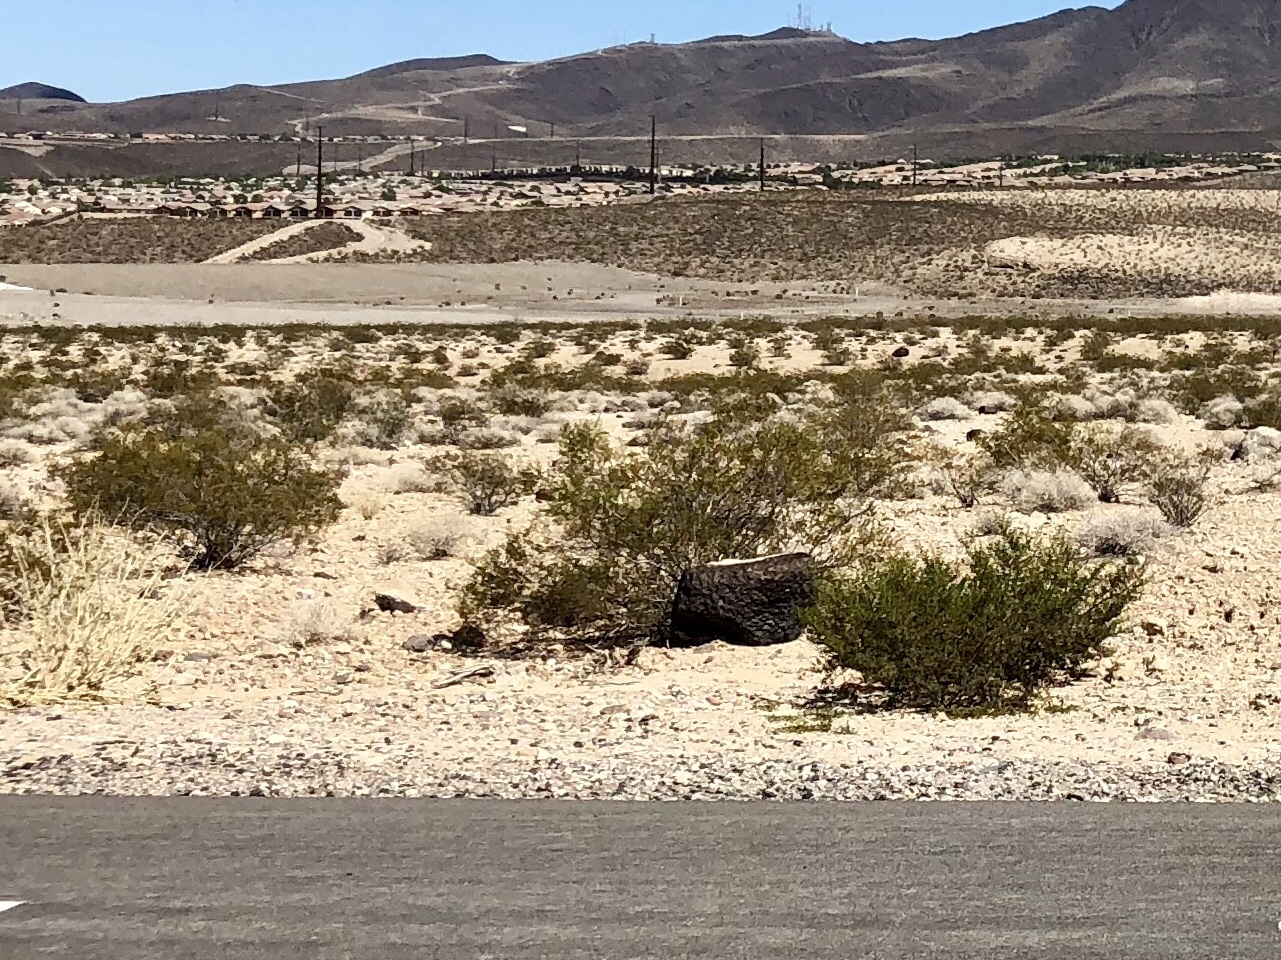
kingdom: Plantae
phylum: Tracheophyta
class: Magnoliopsida
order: Zygophyllales
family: Zygophyllaceae
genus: Larrea
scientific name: Larrea tridentata
